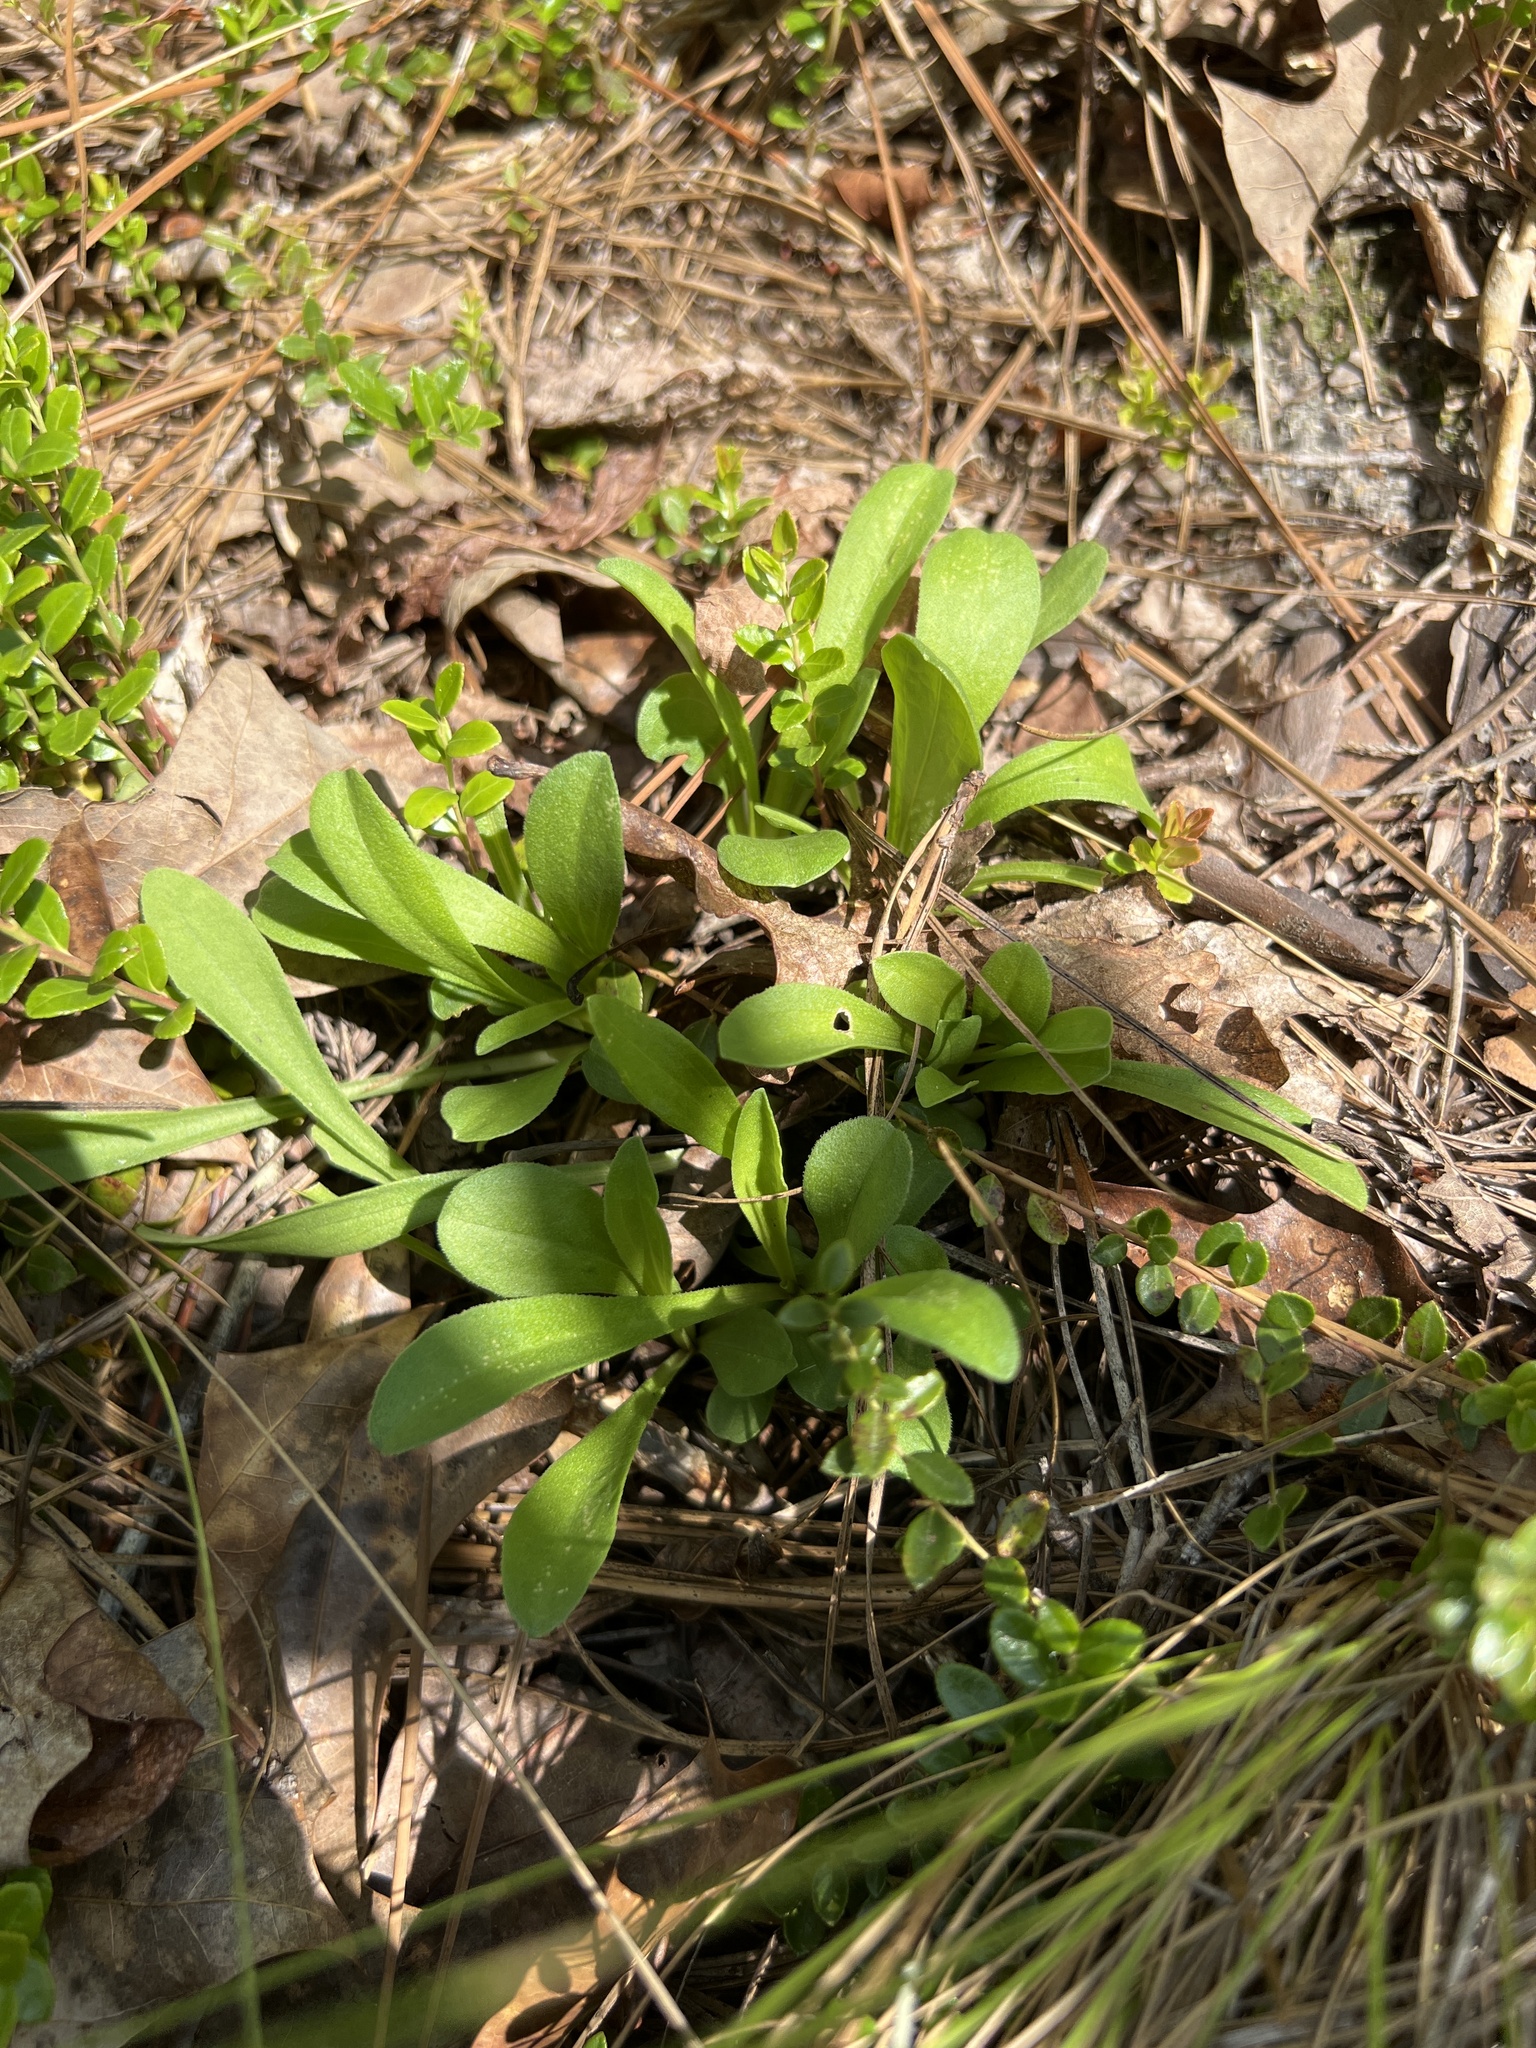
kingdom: Plantae
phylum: Tracheophyta
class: Magnoliopsida
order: Asterales
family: Asteraceae
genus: Carphephorus
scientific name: Carphephorus bellidifolius
